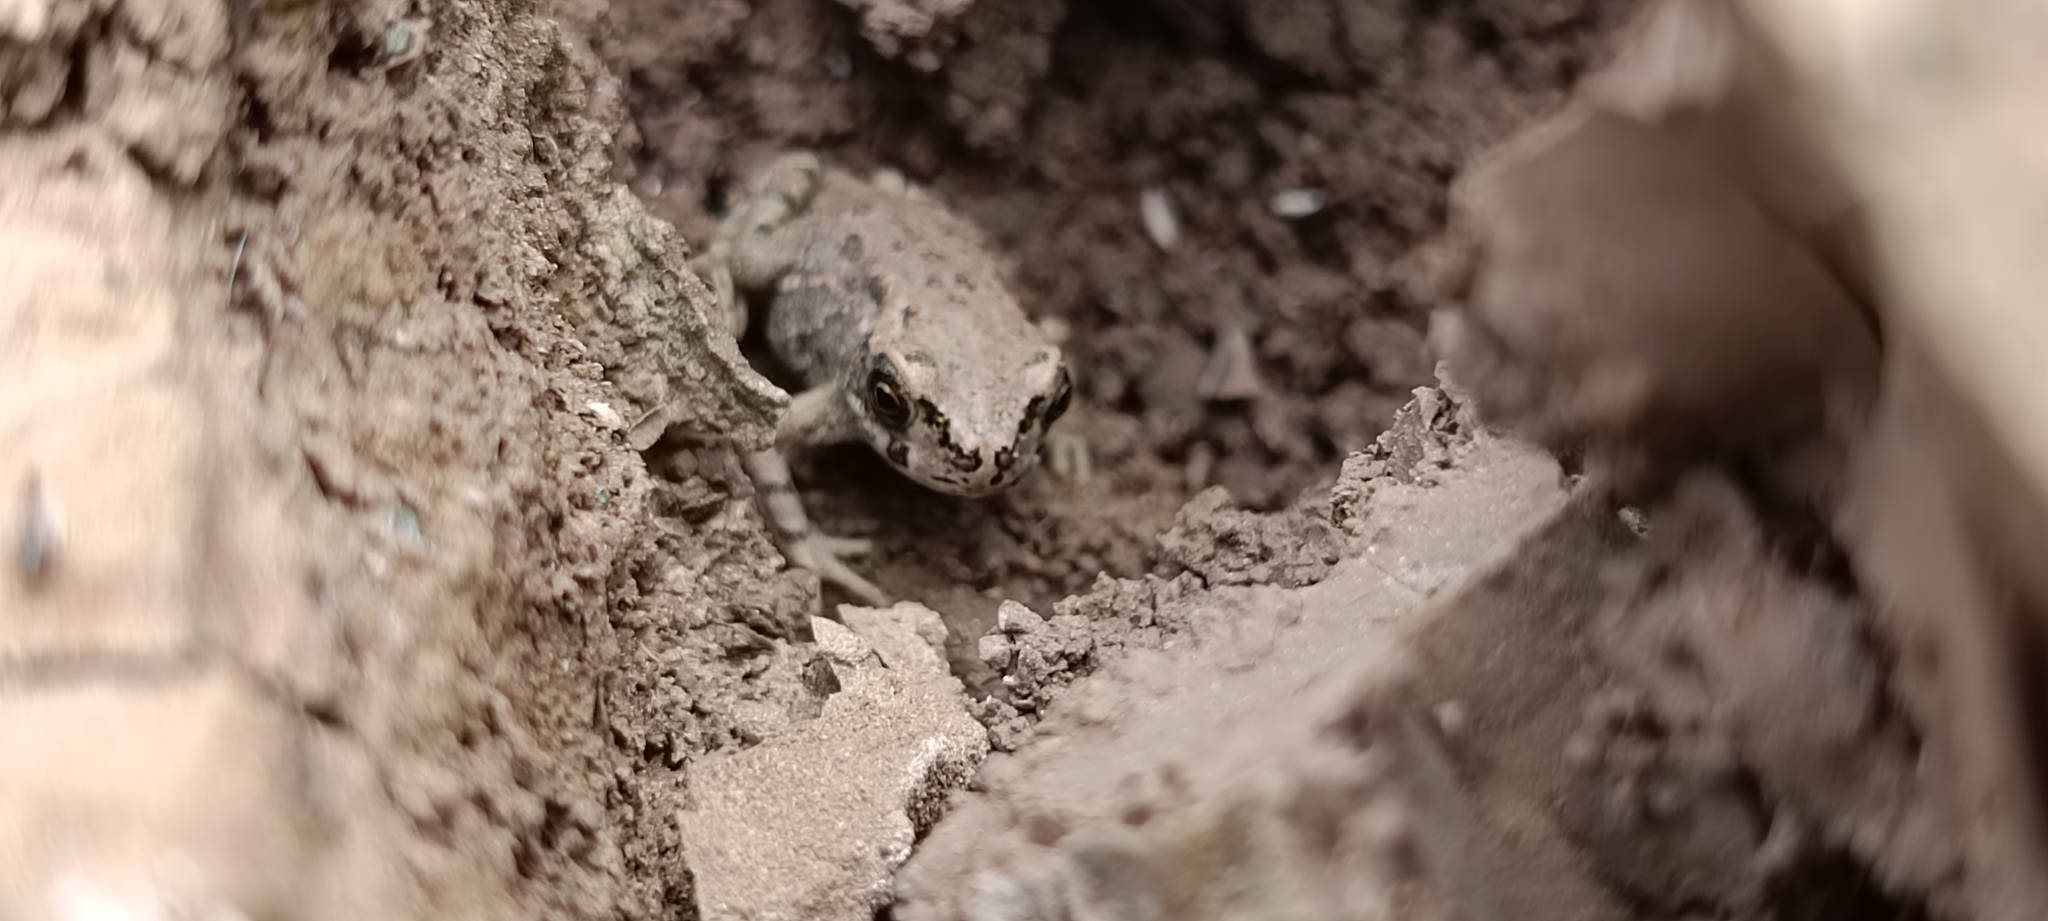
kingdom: Animalia
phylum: Chordata
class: Amphibia
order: Anura
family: Bufonidae
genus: Bufotes
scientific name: Bufotes viridis
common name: European green toad
